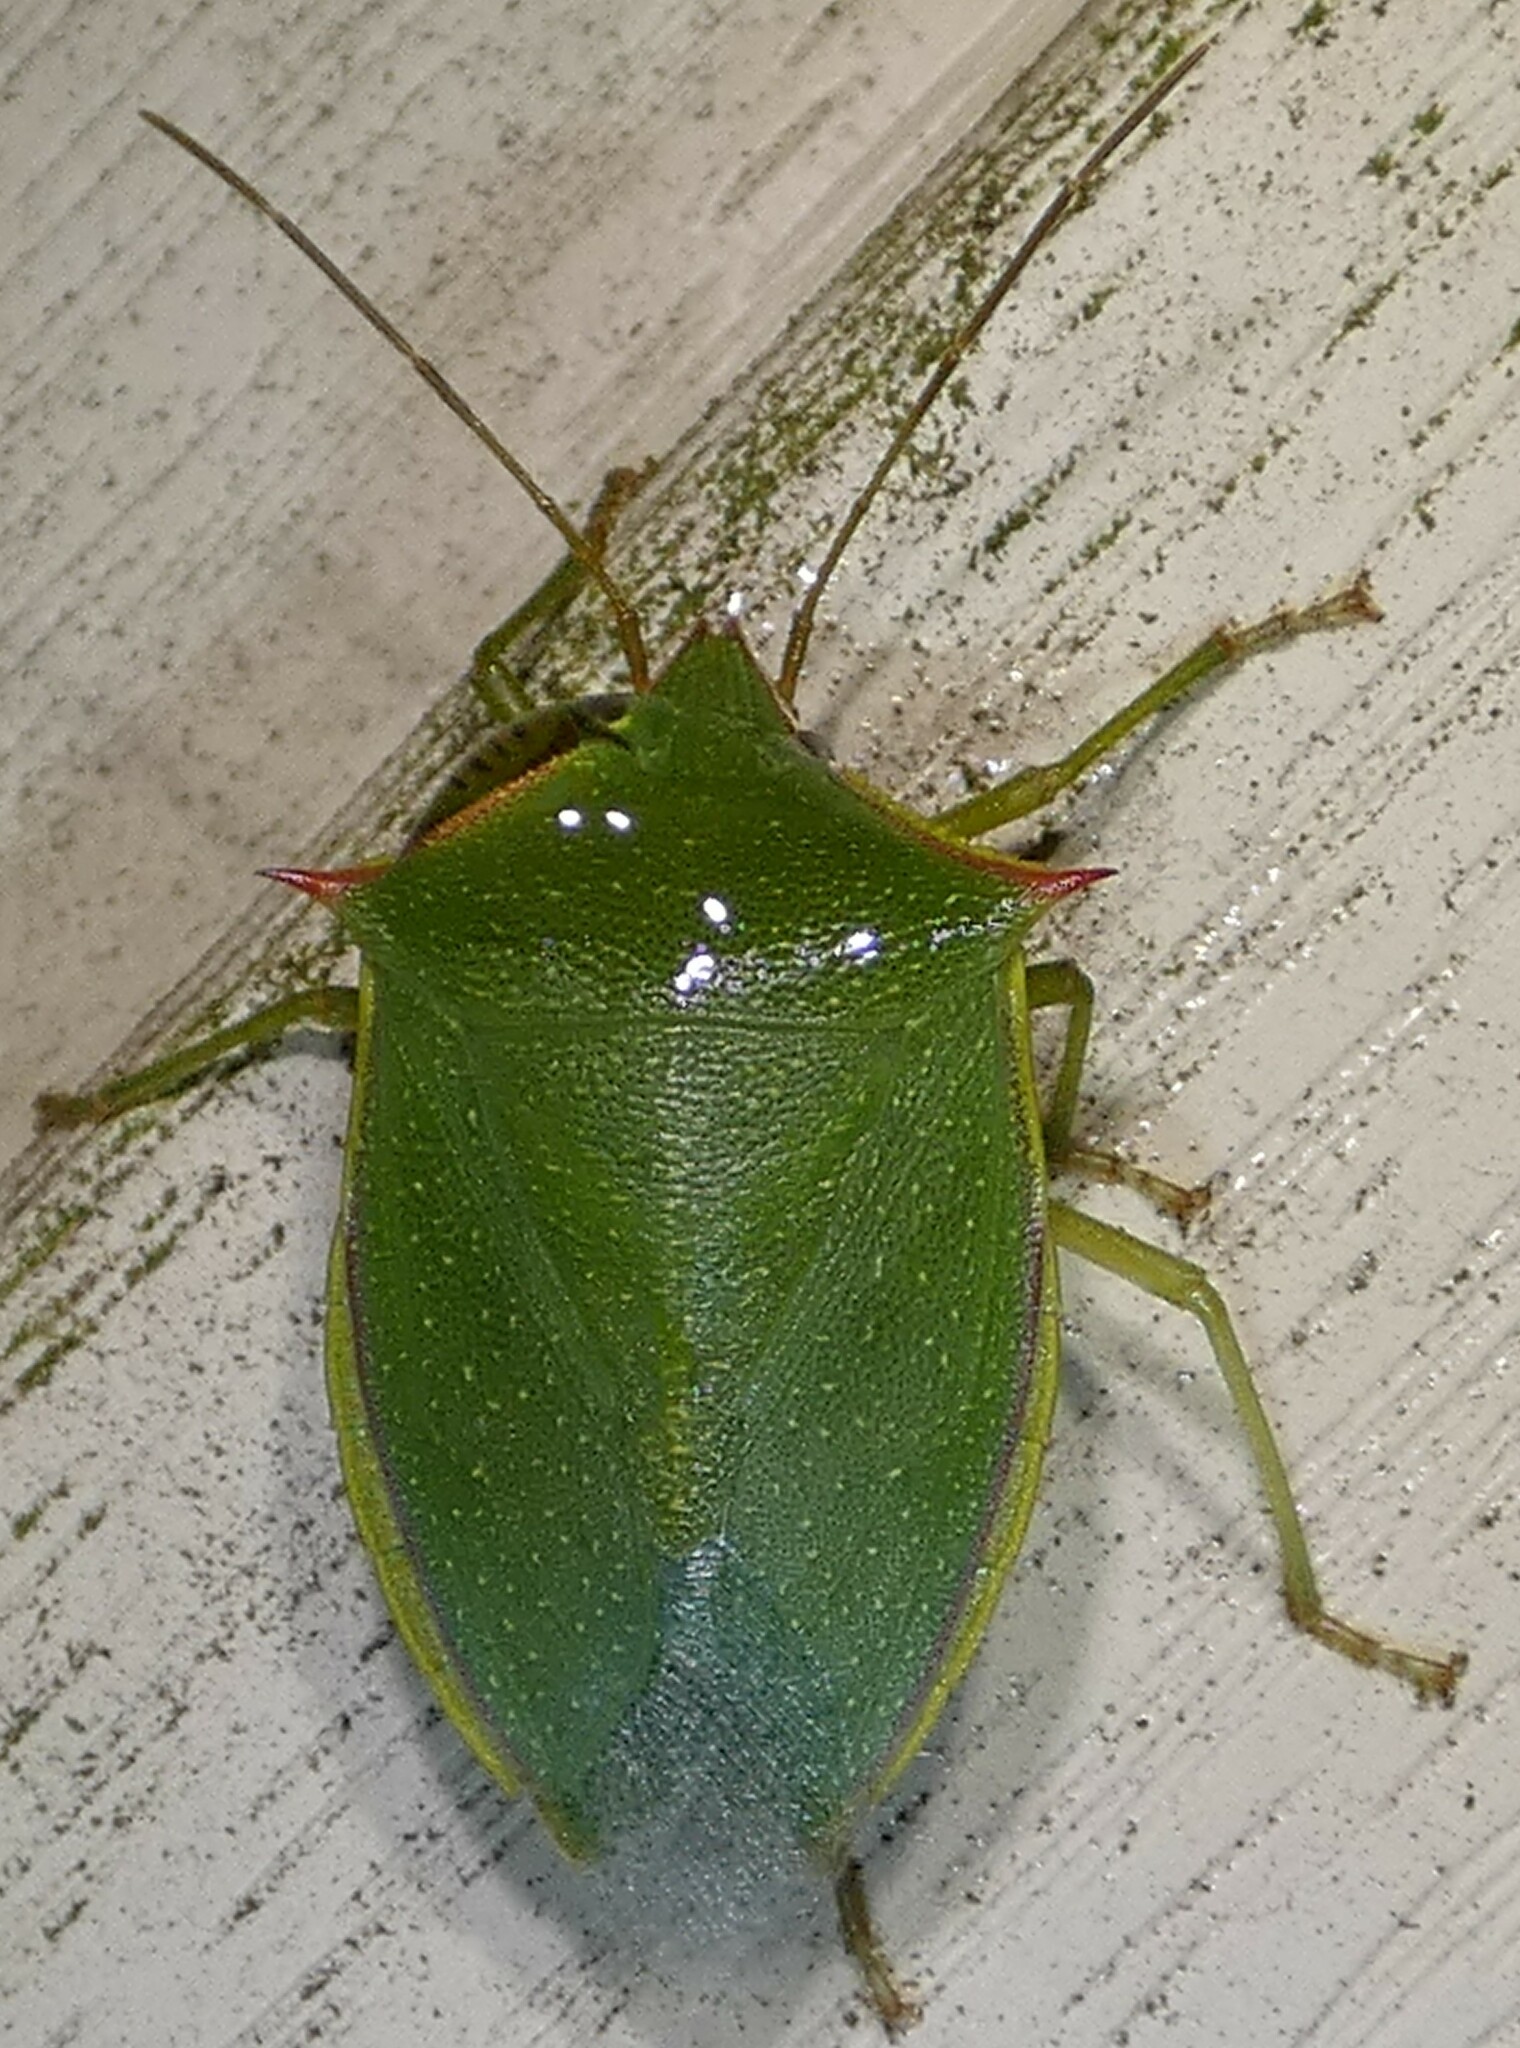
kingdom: Animalia
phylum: Arthropoda
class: Insecta
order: Hemiptera
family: Pentatomidae
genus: Loxa
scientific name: Loxa flavicollis
